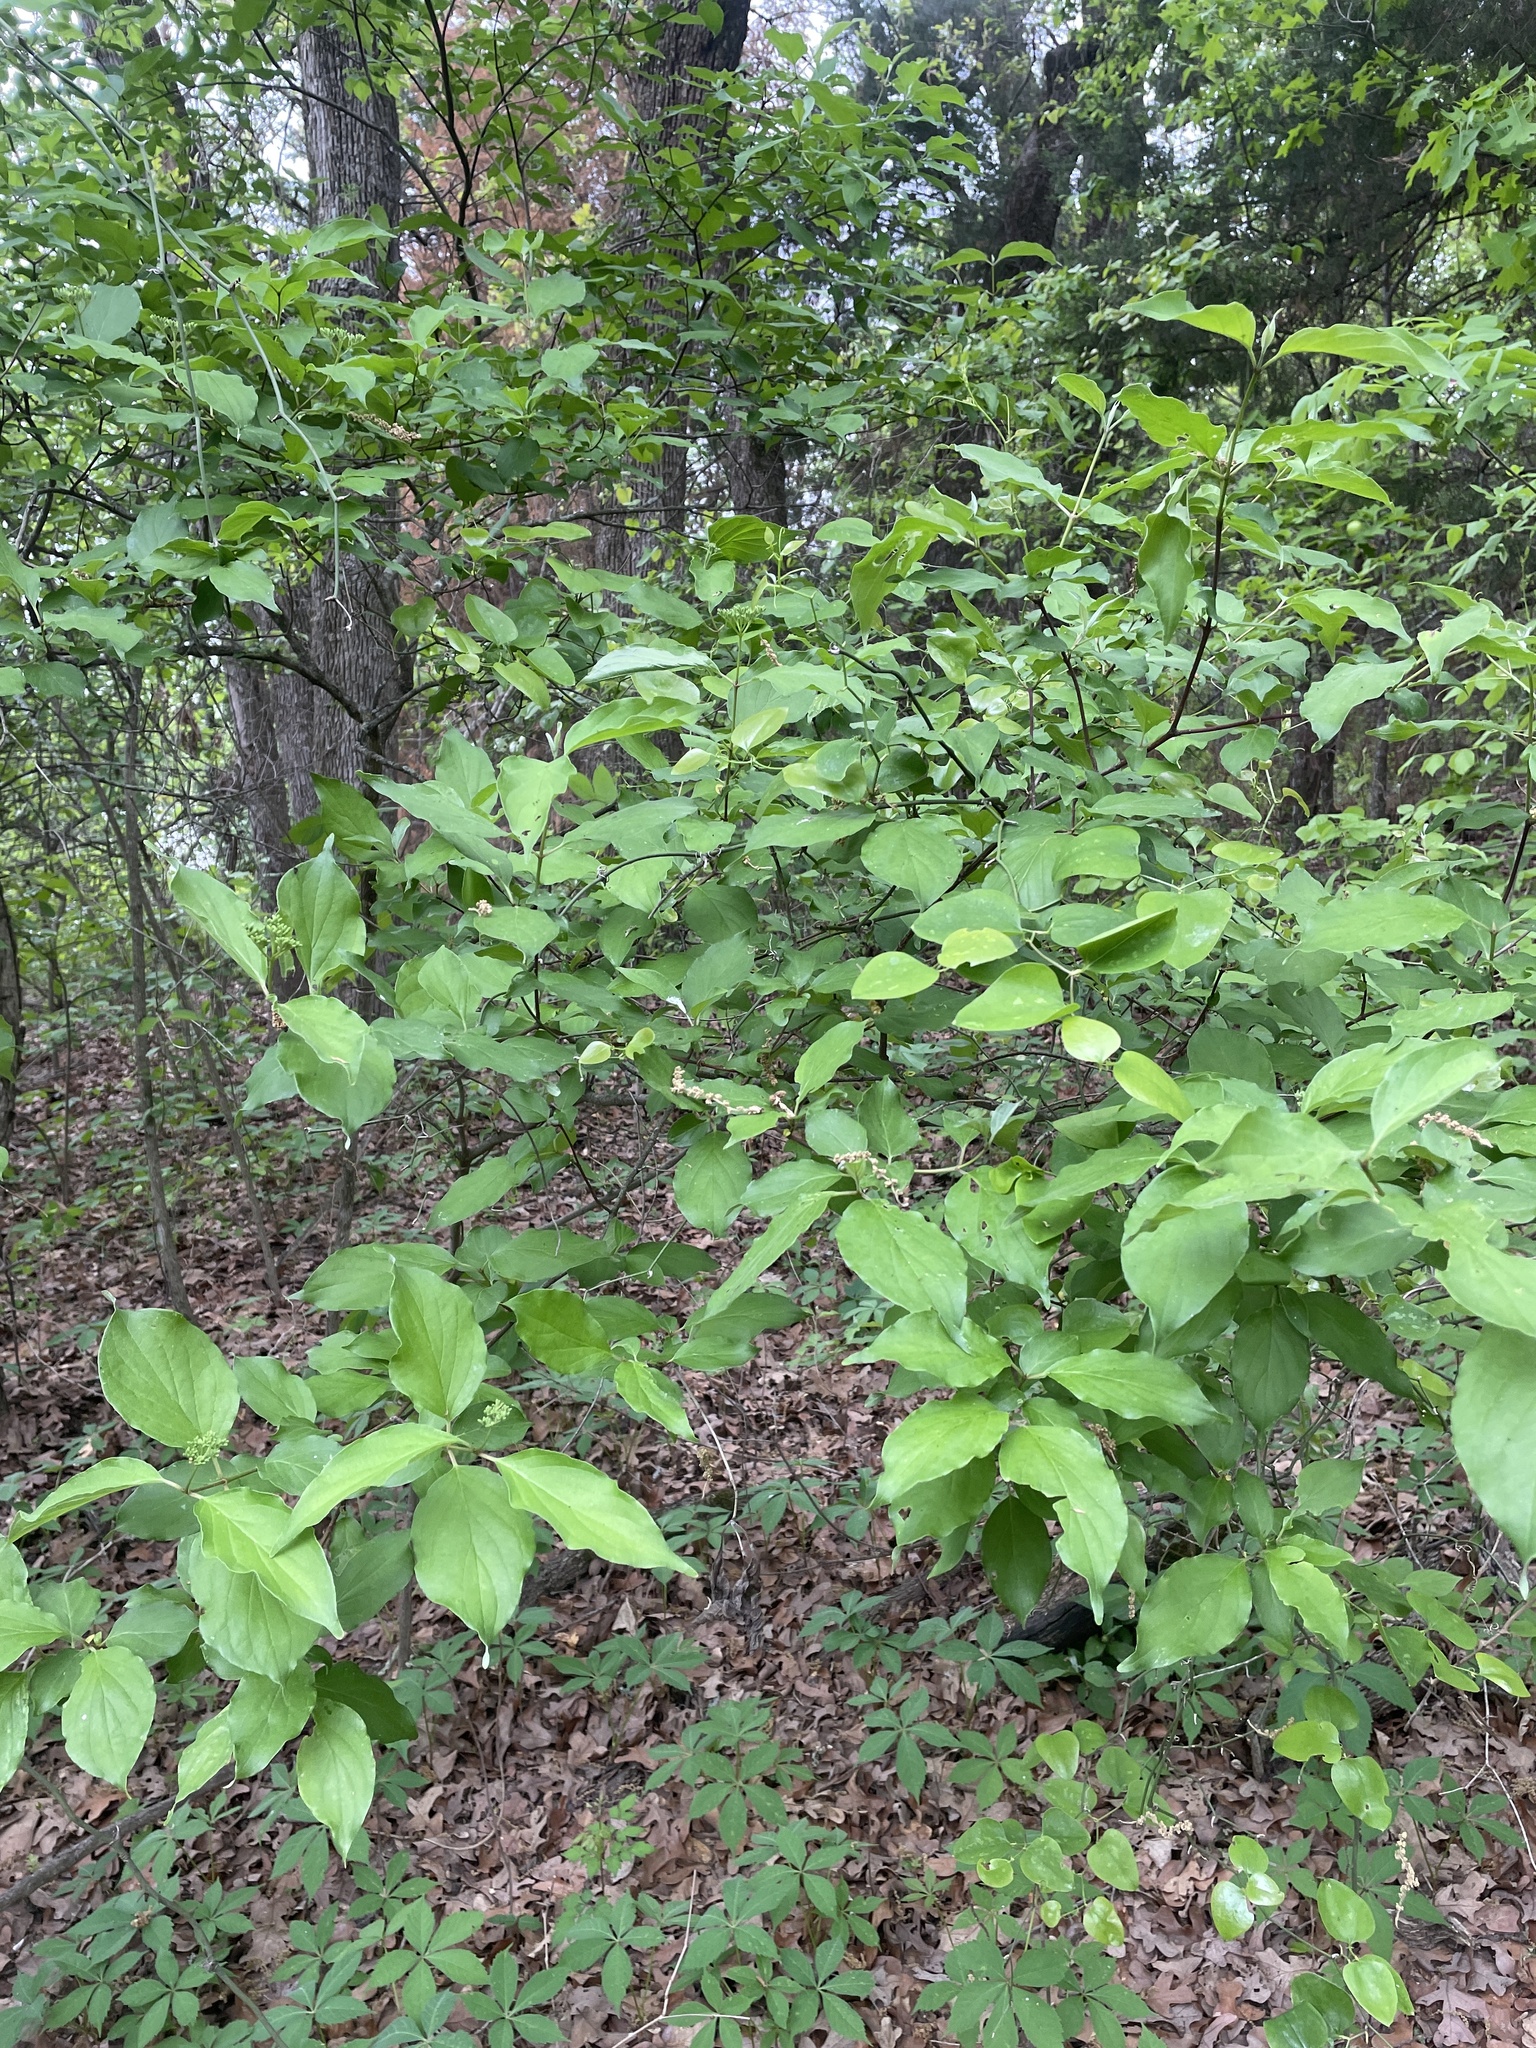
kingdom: Plantae
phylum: Tracheophyta
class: Magnoliopsida
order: Cornales
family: Cornaceae
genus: Cornus
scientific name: Cornus drummondii
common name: Rough-leaf dogwood
